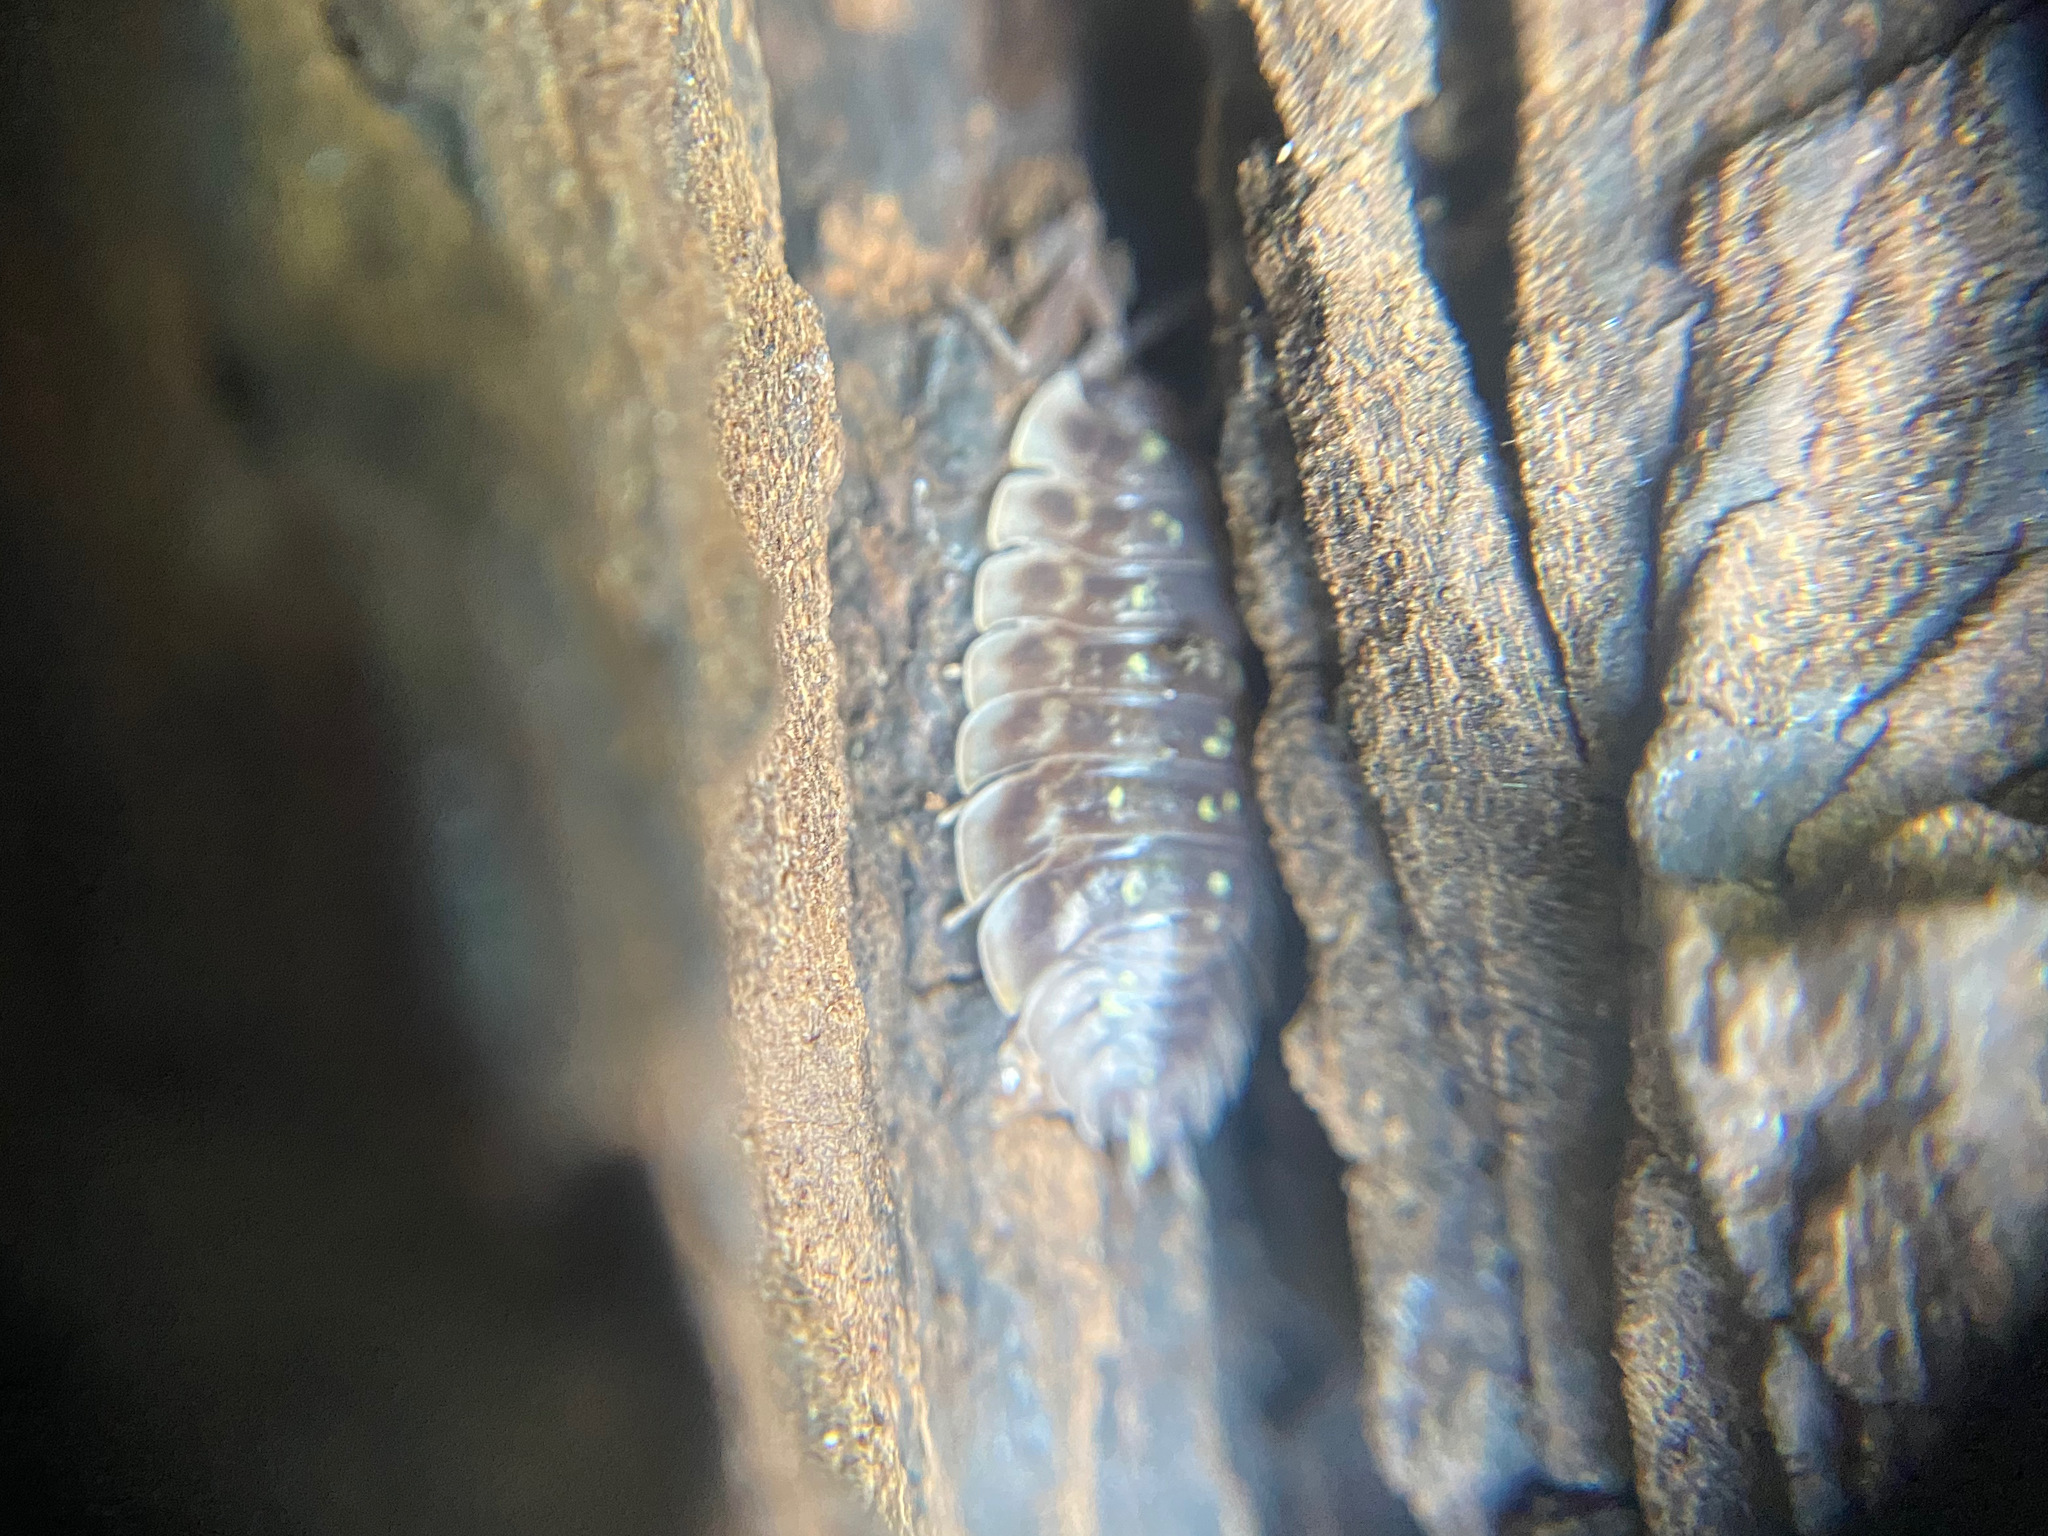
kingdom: Animalia
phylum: Arthropoda
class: Malacostraca
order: Isopoda
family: Oniscidae
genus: Oniscus
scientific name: Oniscus asellus
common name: Common shiny woodlouse
